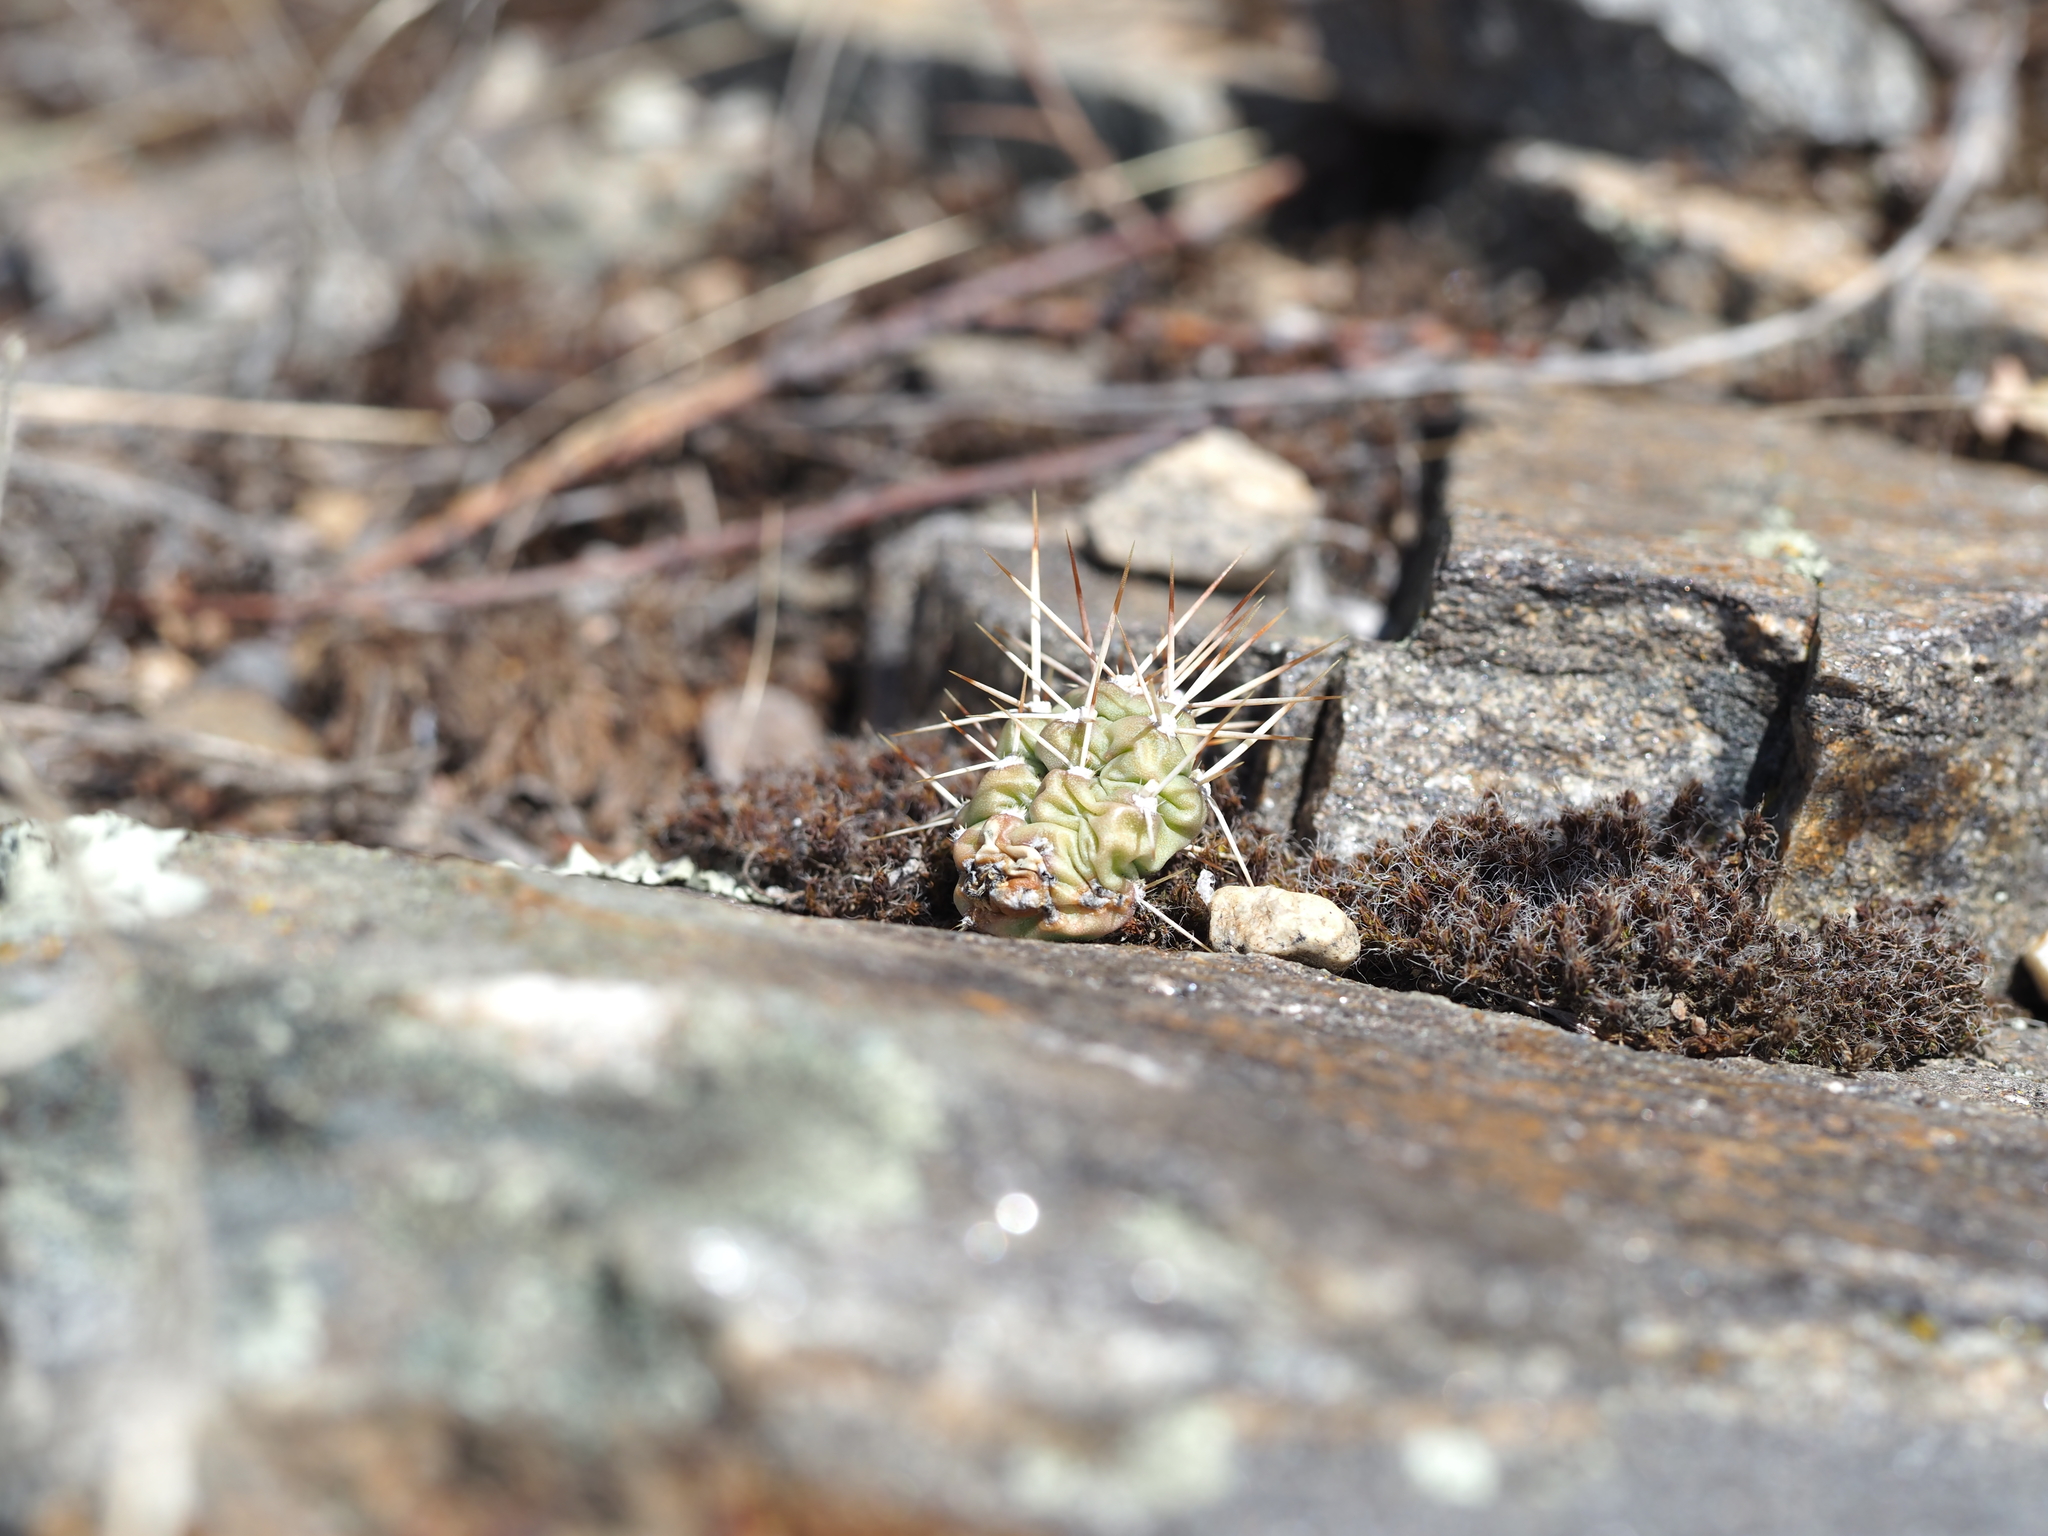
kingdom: Plantae
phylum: Tracheophyta
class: Magnoliopsida
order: Caryophyllales
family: Cactaceae
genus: Opuntia
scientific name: Opuntia fragilis
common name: Brittle cactus
